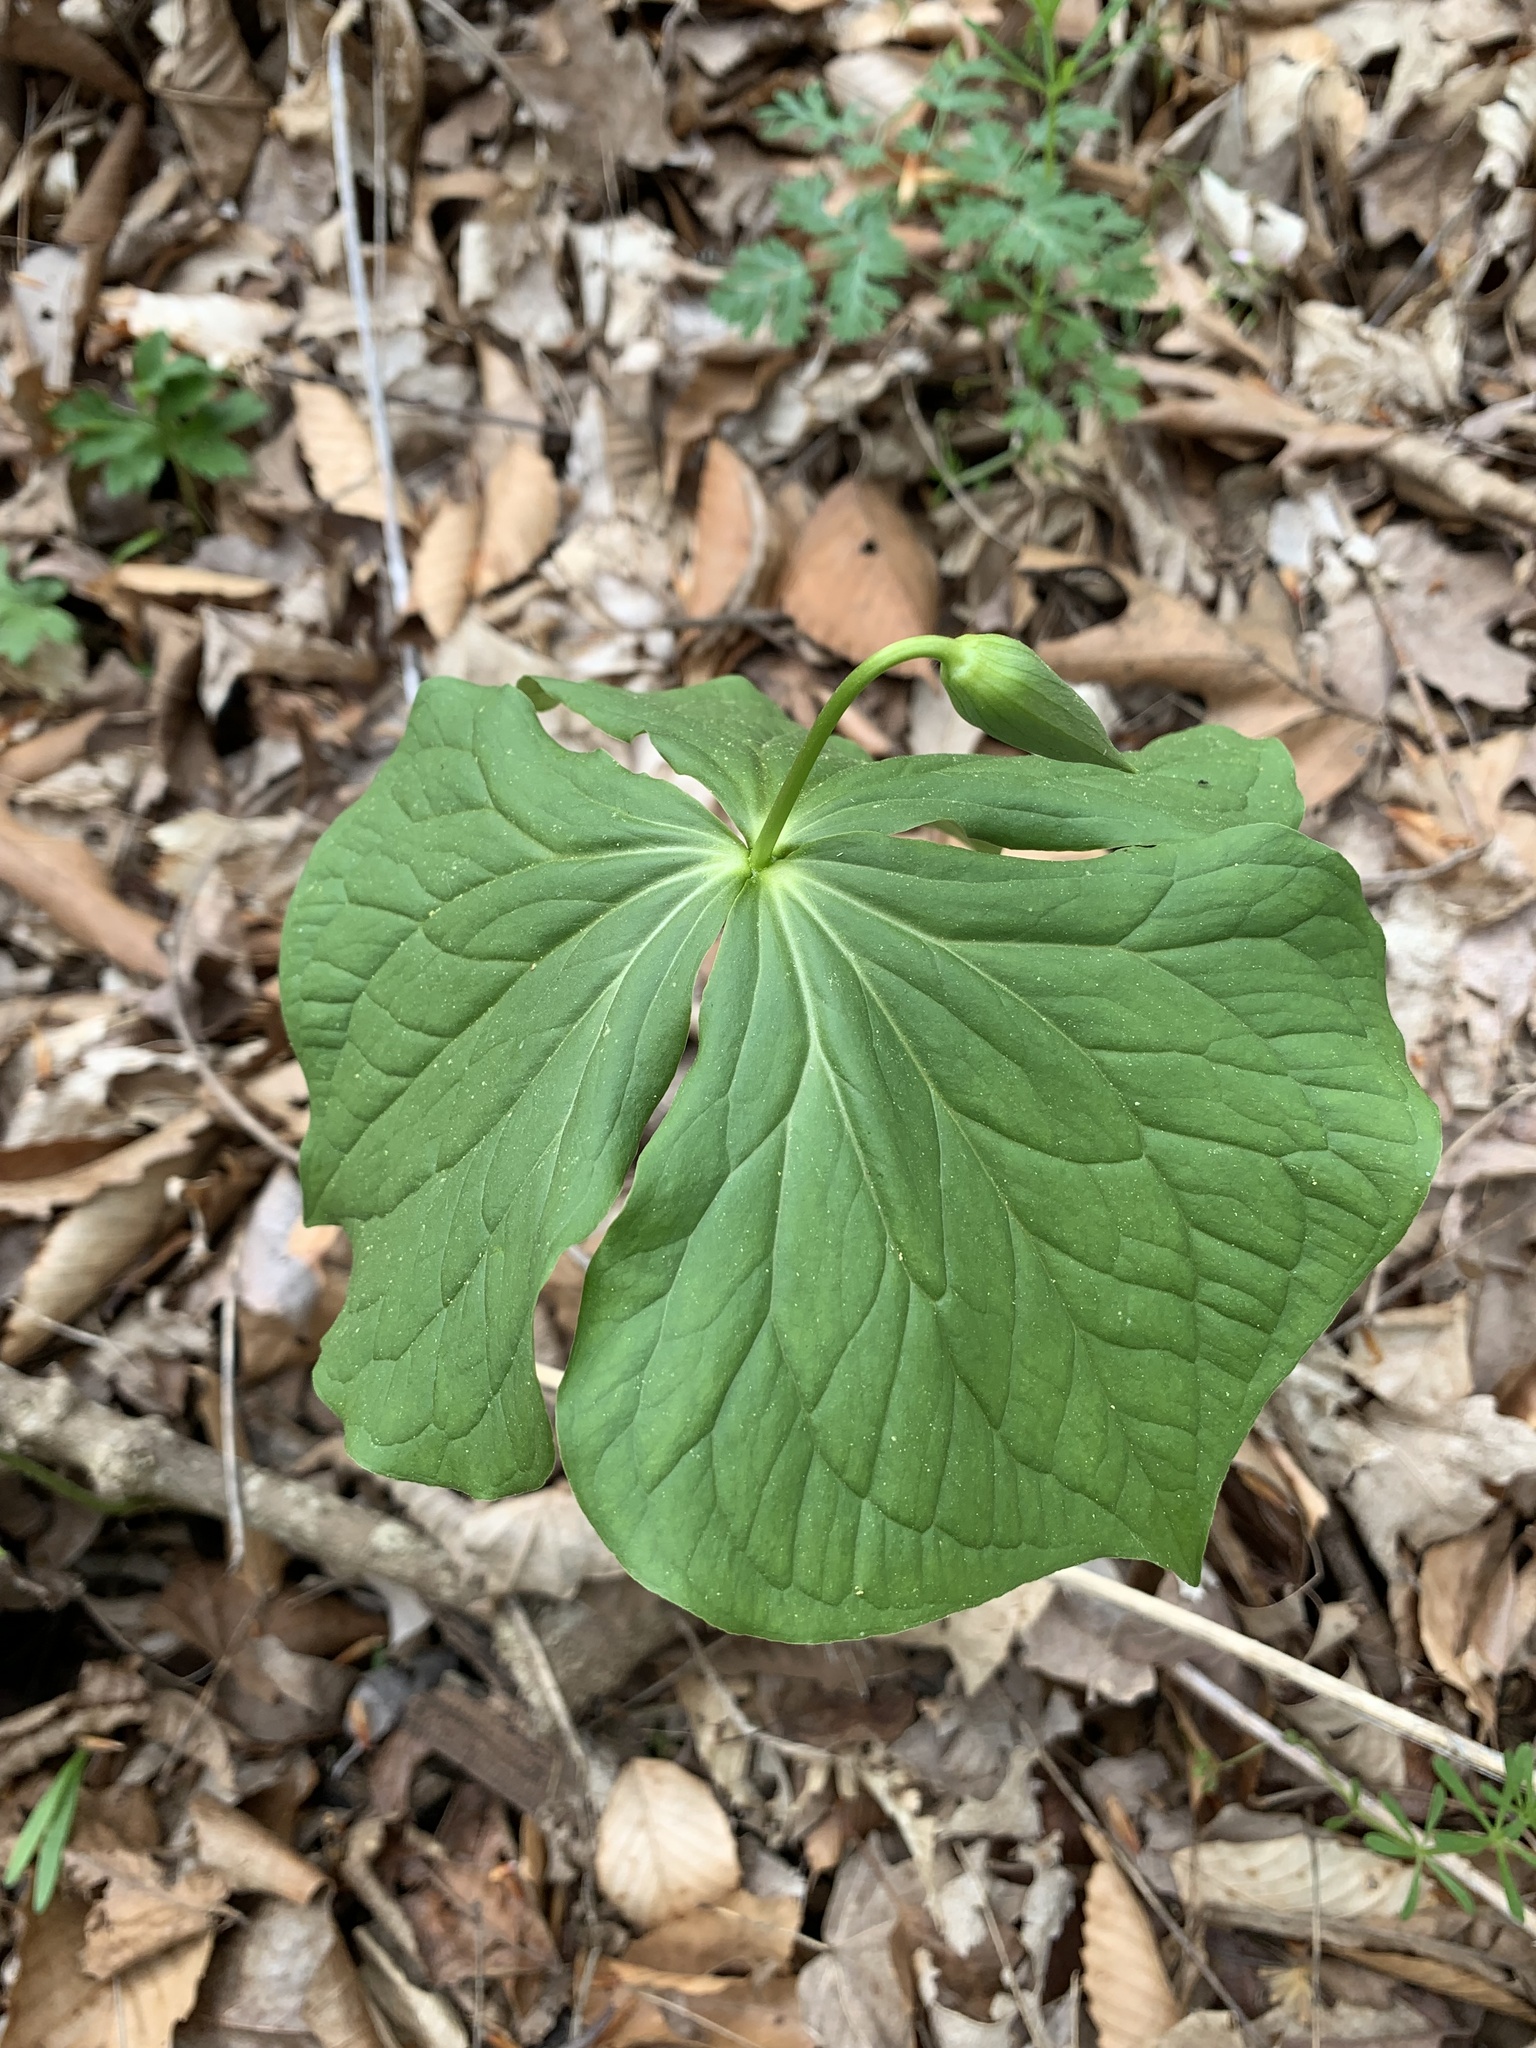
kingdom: Plantae
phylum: Tracheophyta
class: Liliopsida
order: Liliales
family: Melanthiaceae
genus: Trillium
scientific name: Trillium flexipes
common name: Drooping trillium
